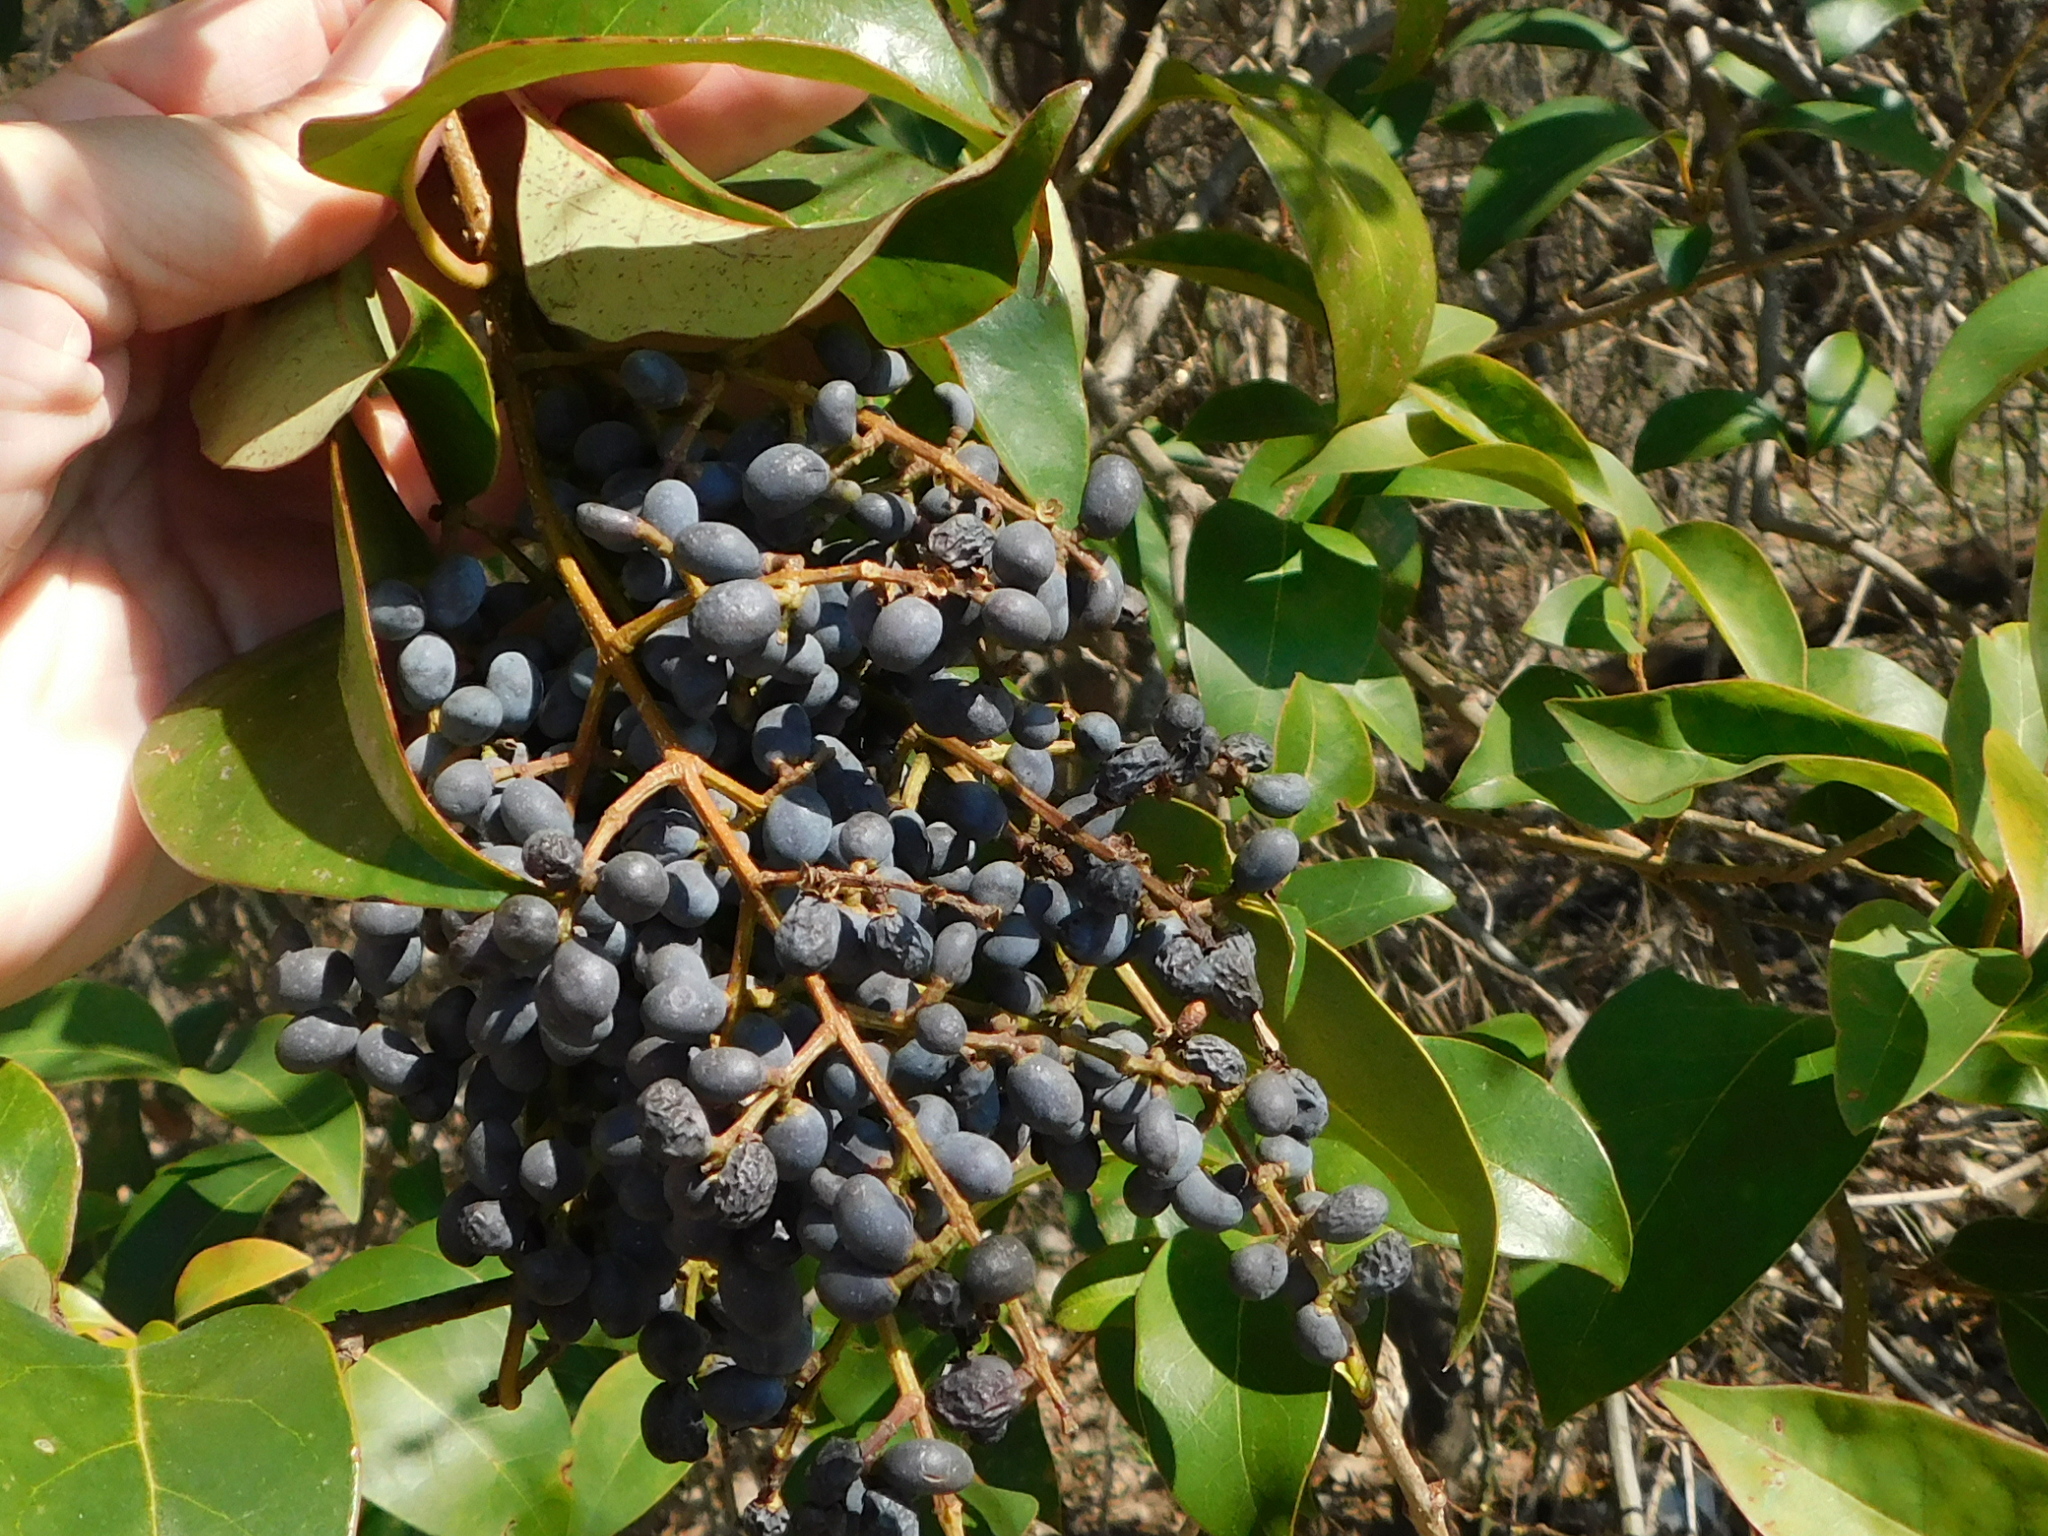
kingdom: Plantae
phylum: Tracheophyta
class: Magnoliopsida
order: Lamiales
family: Oleaceae
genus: Ligustrum
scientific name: Ligustrum lucidum
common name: Glossy privet
